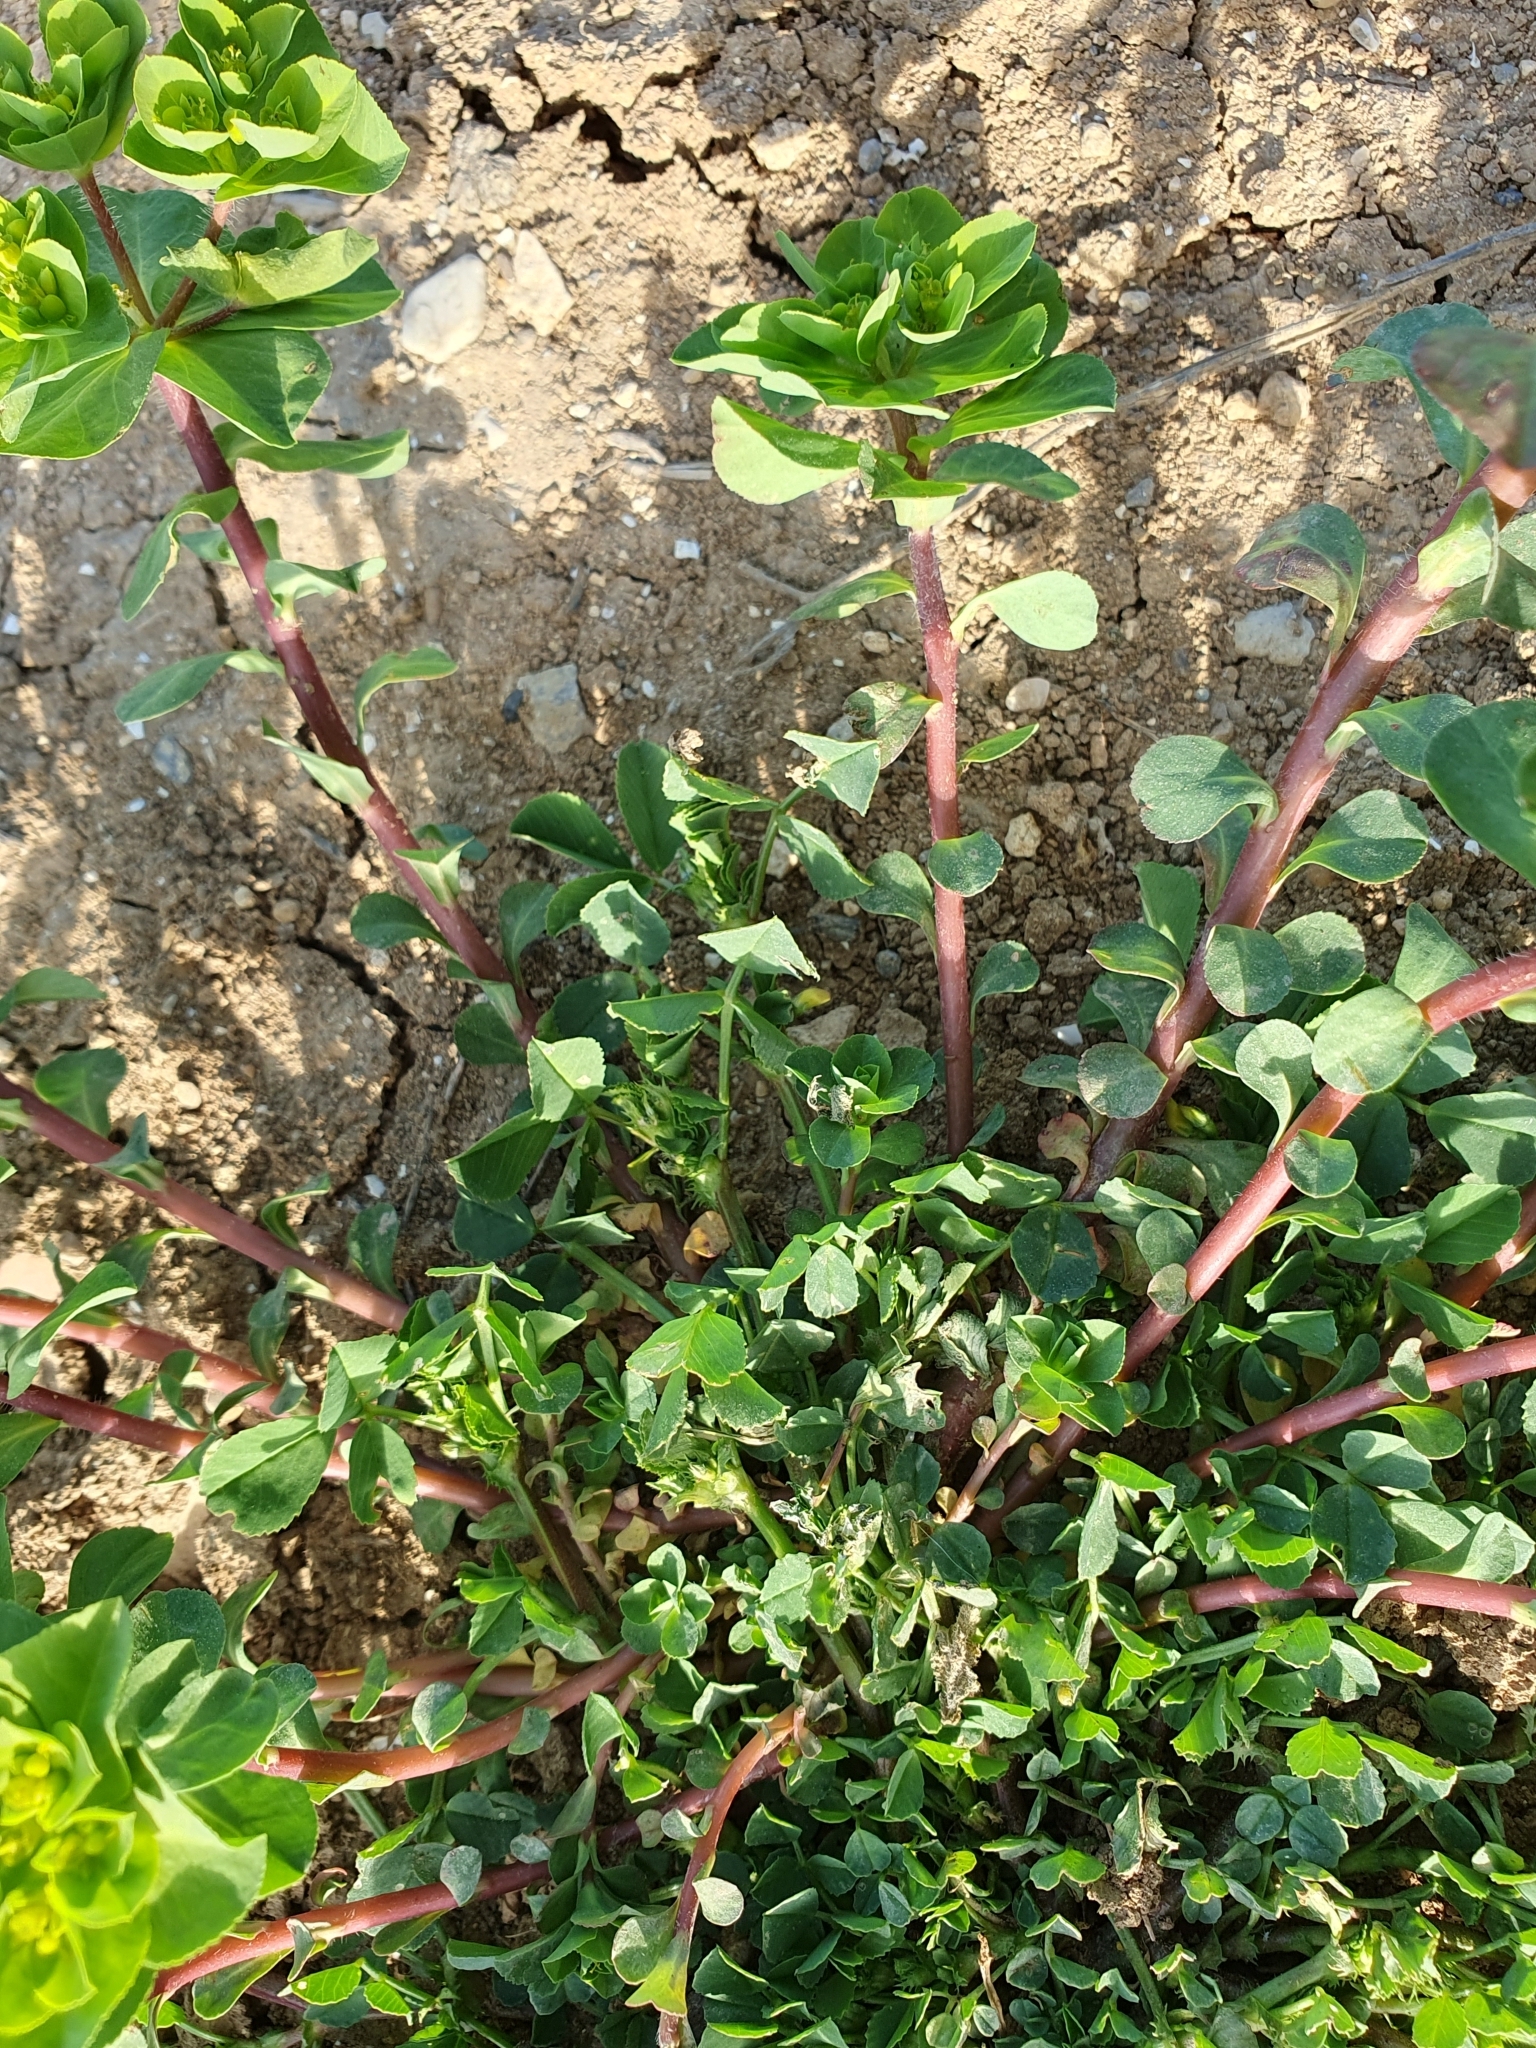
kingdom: Plantae
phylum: Tracheophyta
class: Magnoliopsida
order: Malpighiales
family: Euphorbiaceae
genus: Euphorbia
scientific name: Euphorbia helioscopia
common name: Sun spurge
